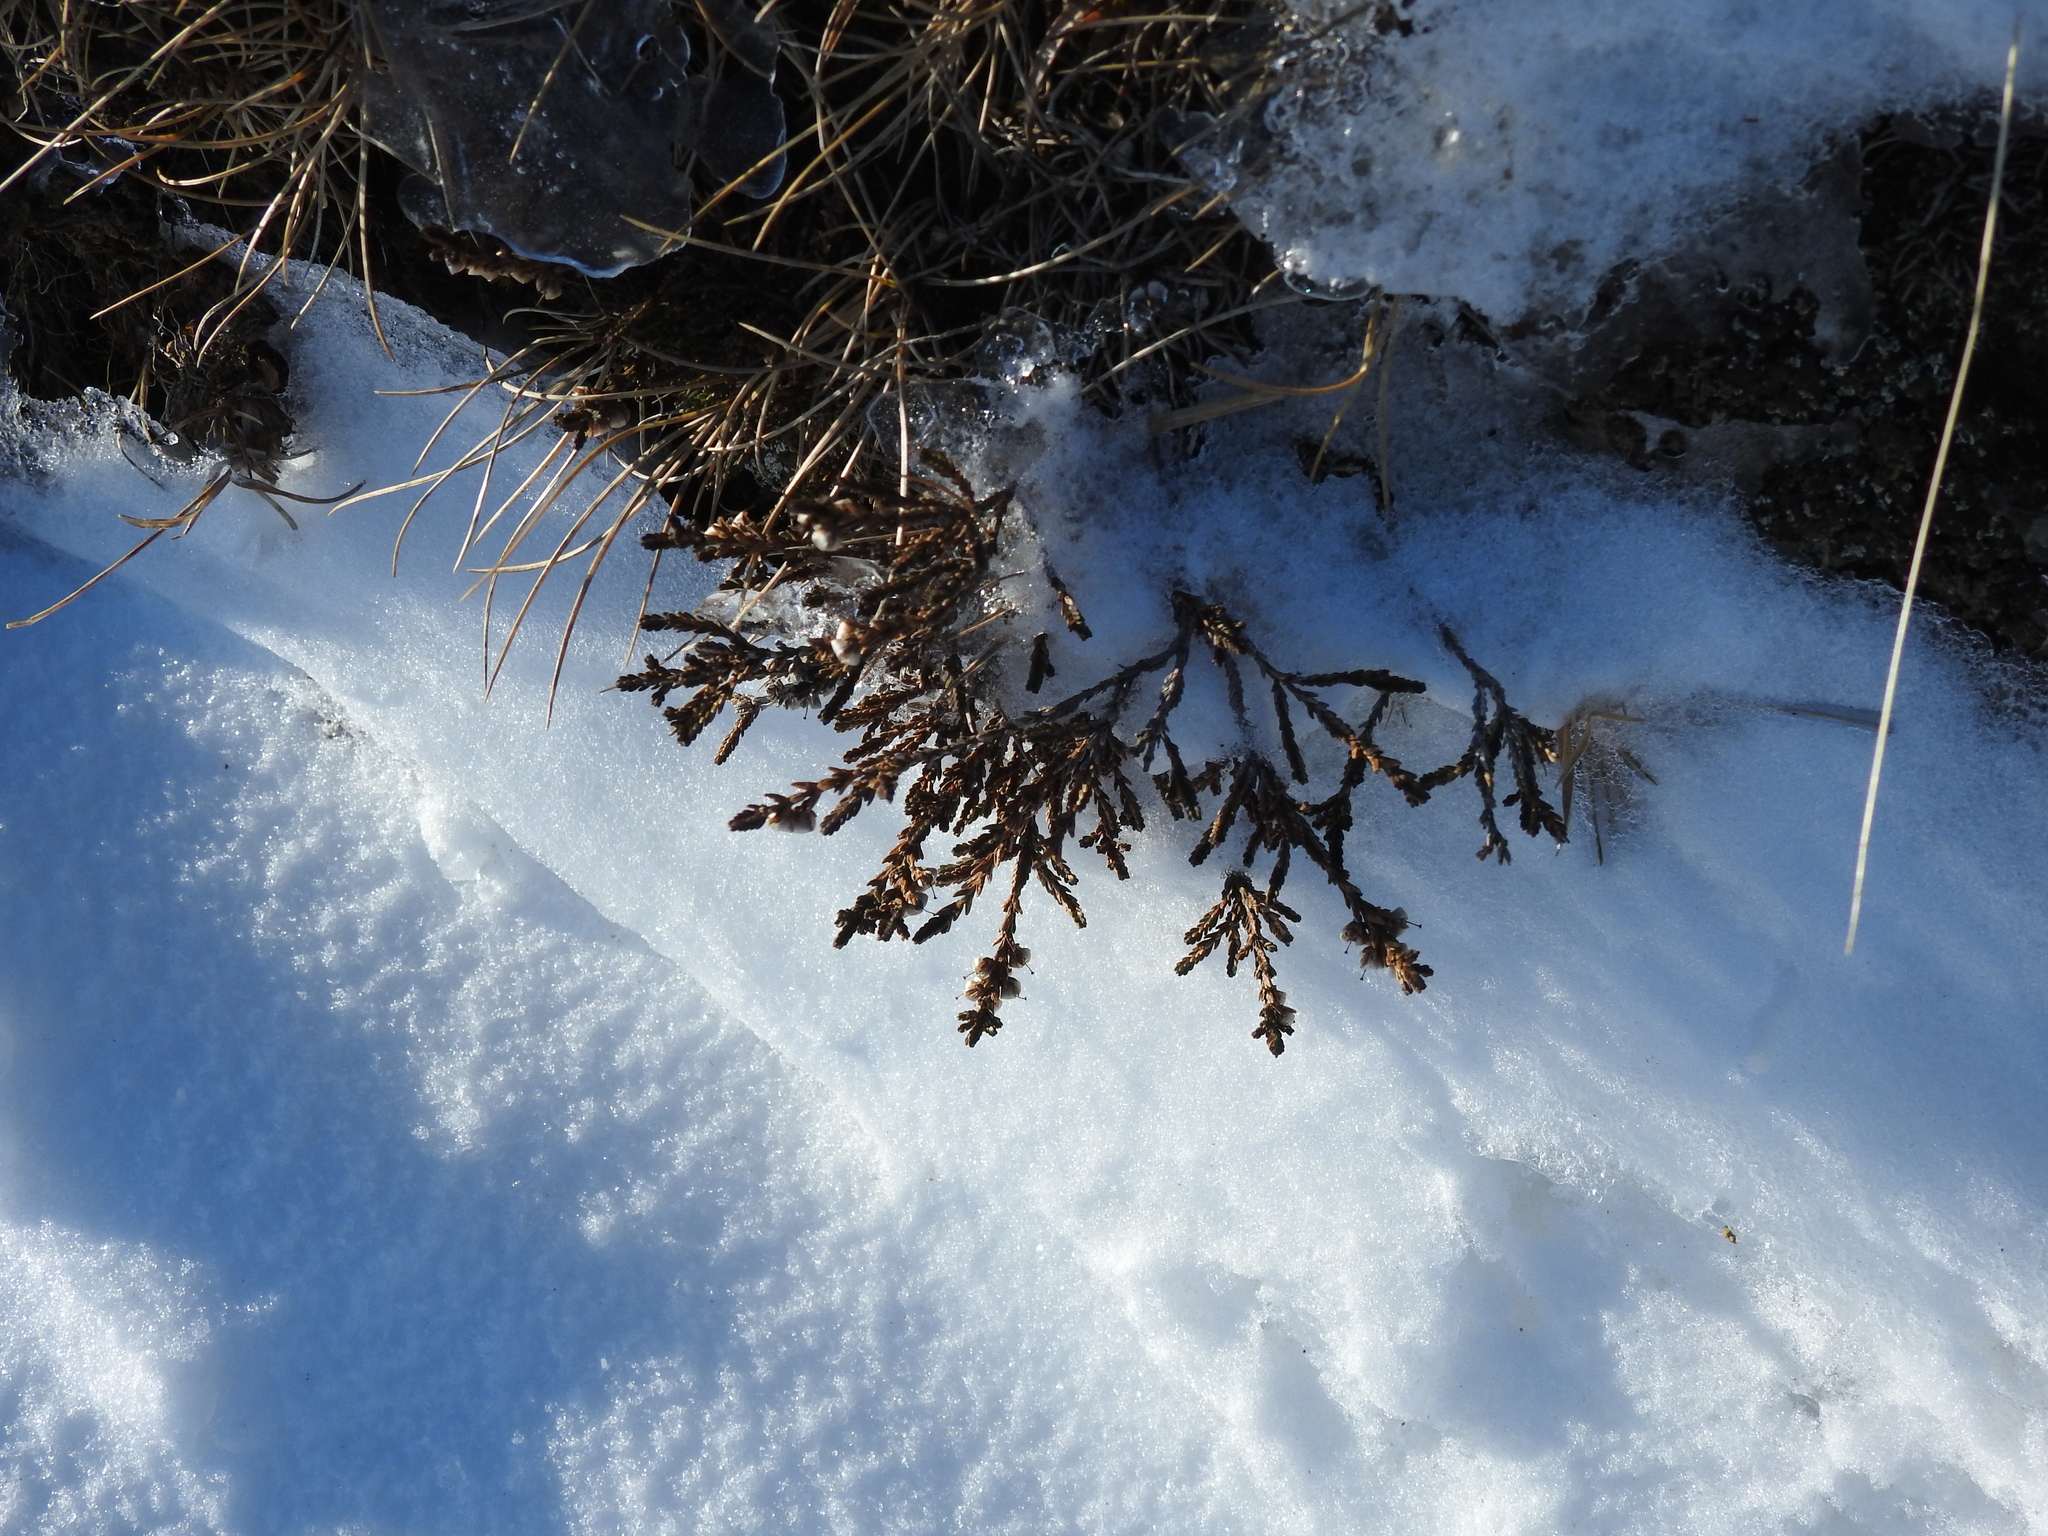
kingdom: Plantae
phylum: Tracheophyta
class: Magnoliopsida
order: Ericales
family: Ericaceae
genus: Calluna
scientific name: Calluna vulgaris
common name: Heather
